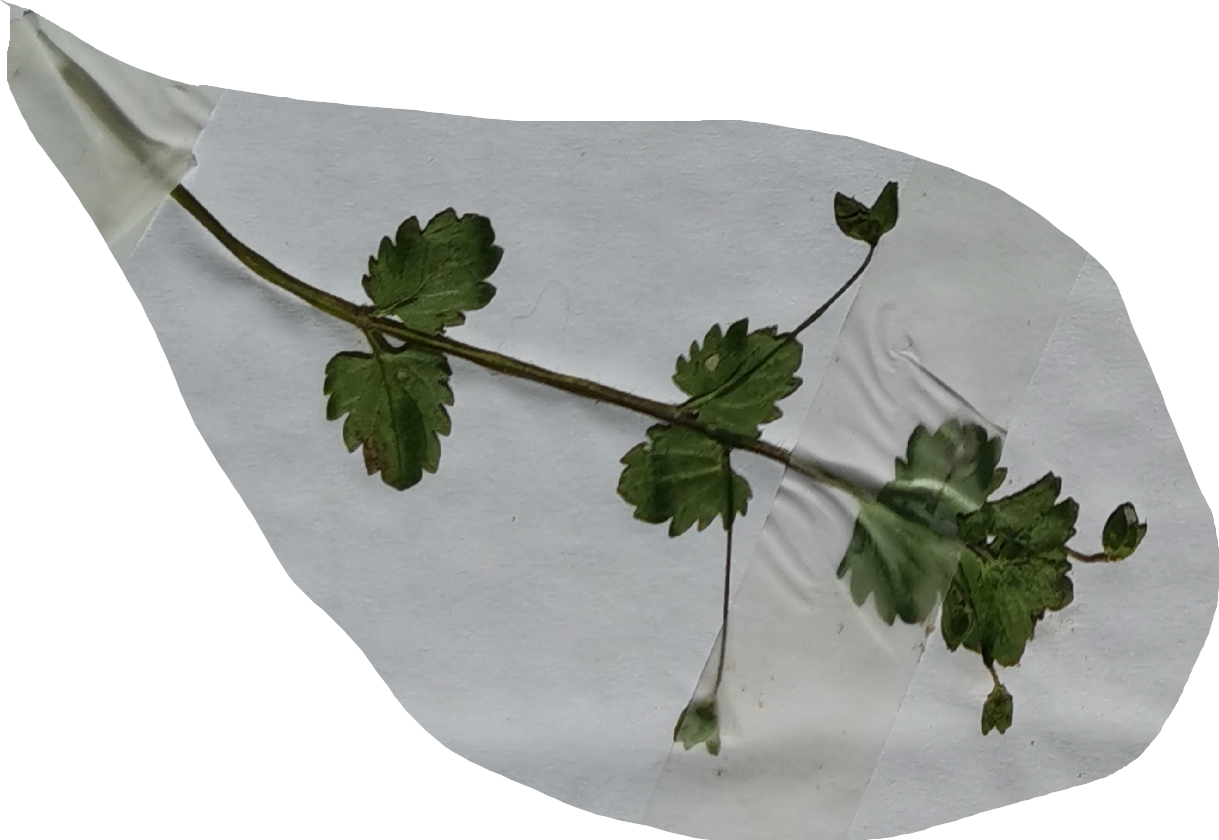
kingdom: Plantae
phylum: Tracheophyta
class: Magnoliopsida
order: Lamiales
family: Plantaginaceae
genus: Veronica
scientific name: Veronica persica
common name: Common field-speedwell
